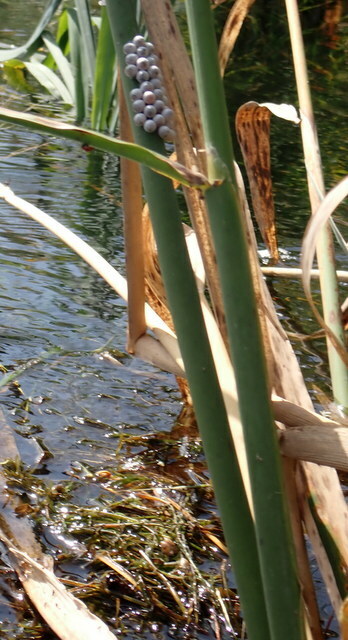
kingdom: Animalia
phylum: Mollusca
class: Gastropoda
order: Architaenioglossa
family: Ampullariidae
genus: Pomacea
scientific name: Pomacea paludosa
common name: Florida applesnail
